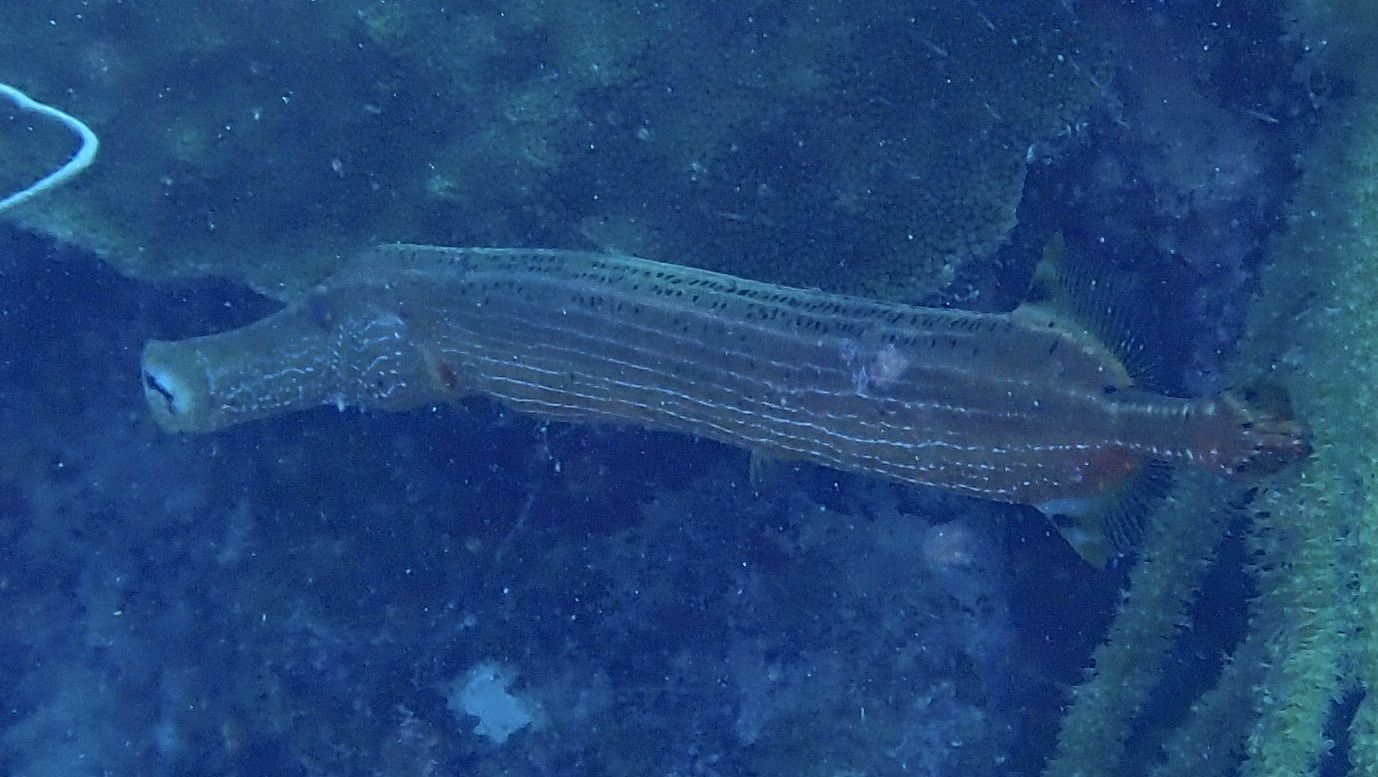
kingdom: Animalia
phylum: Chordata
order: Syngnathiformes
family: Aulostomidae
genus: Aulostomus
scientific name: Aulostomus maculatus
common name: West atlantic trumpetfish
